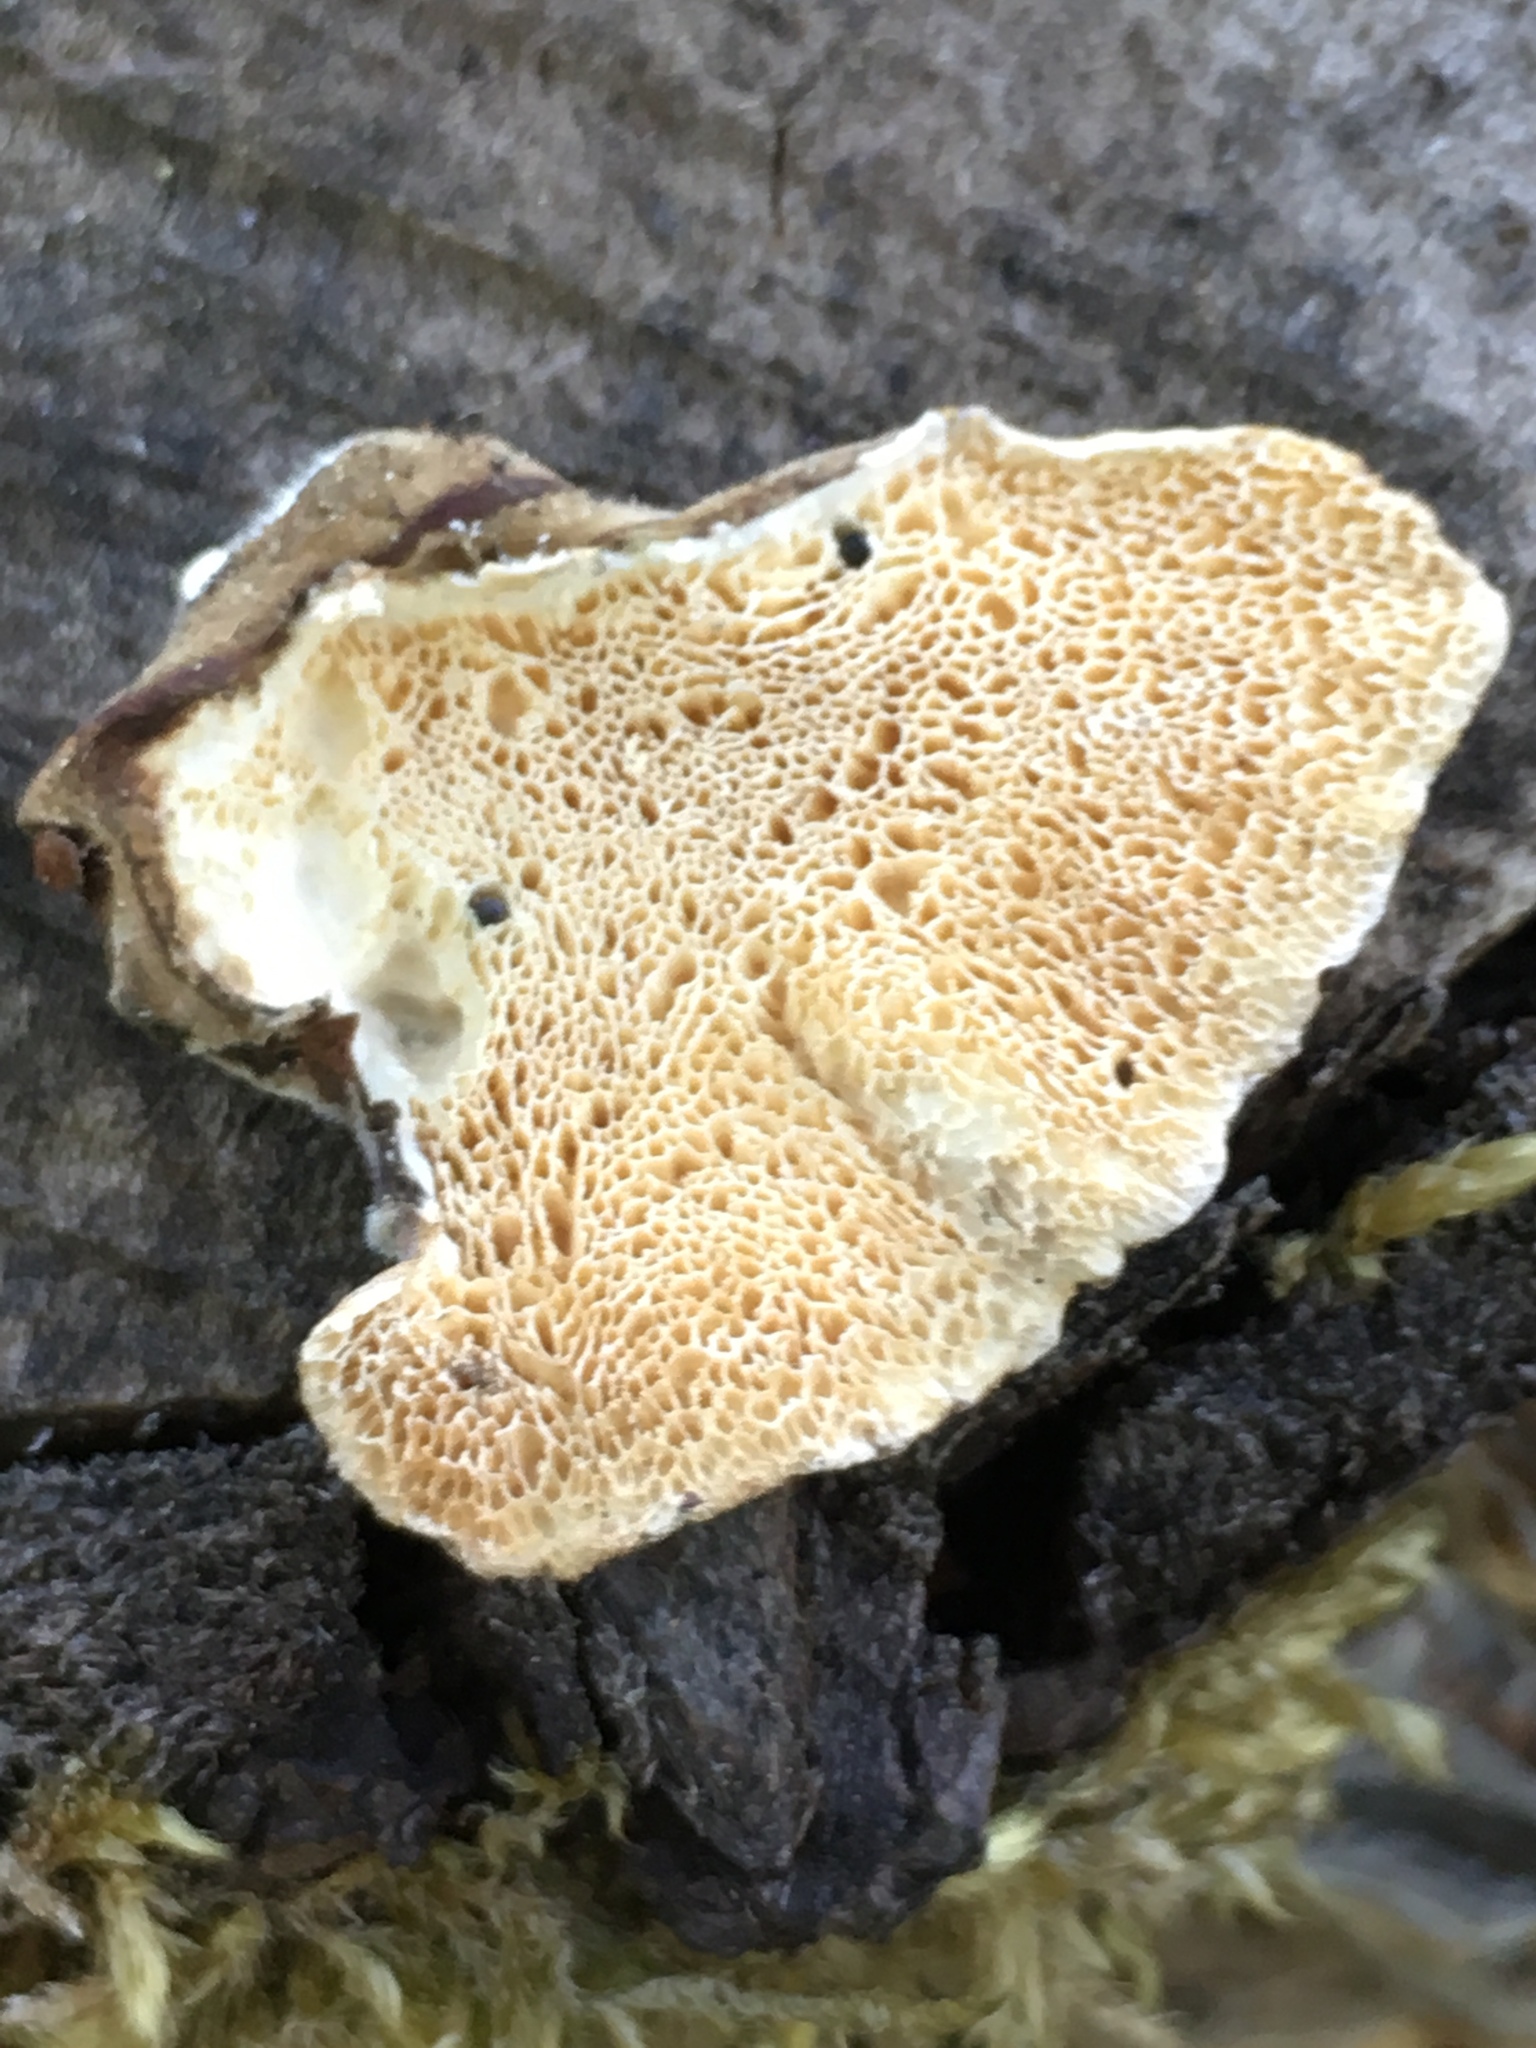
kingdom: Fungi
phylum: Basidiomycota
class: Agaricomycetes
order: Polyporales
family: Polyporaceae
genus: Trametes
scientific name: Trametes versicolor
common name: Turkeytail
